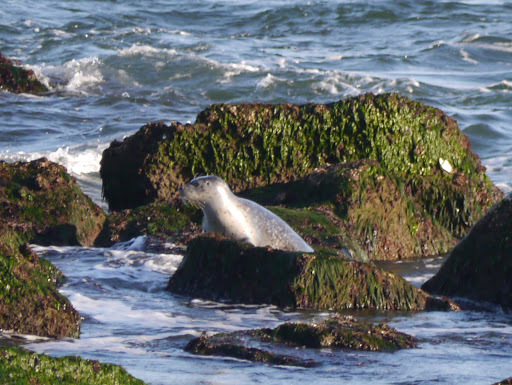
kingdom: Animalia
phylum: Chordata
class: Mammalia
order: Carnivora
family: Phocidae
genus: Phoca
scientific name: Phoca vitulina
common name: Harbor seal
